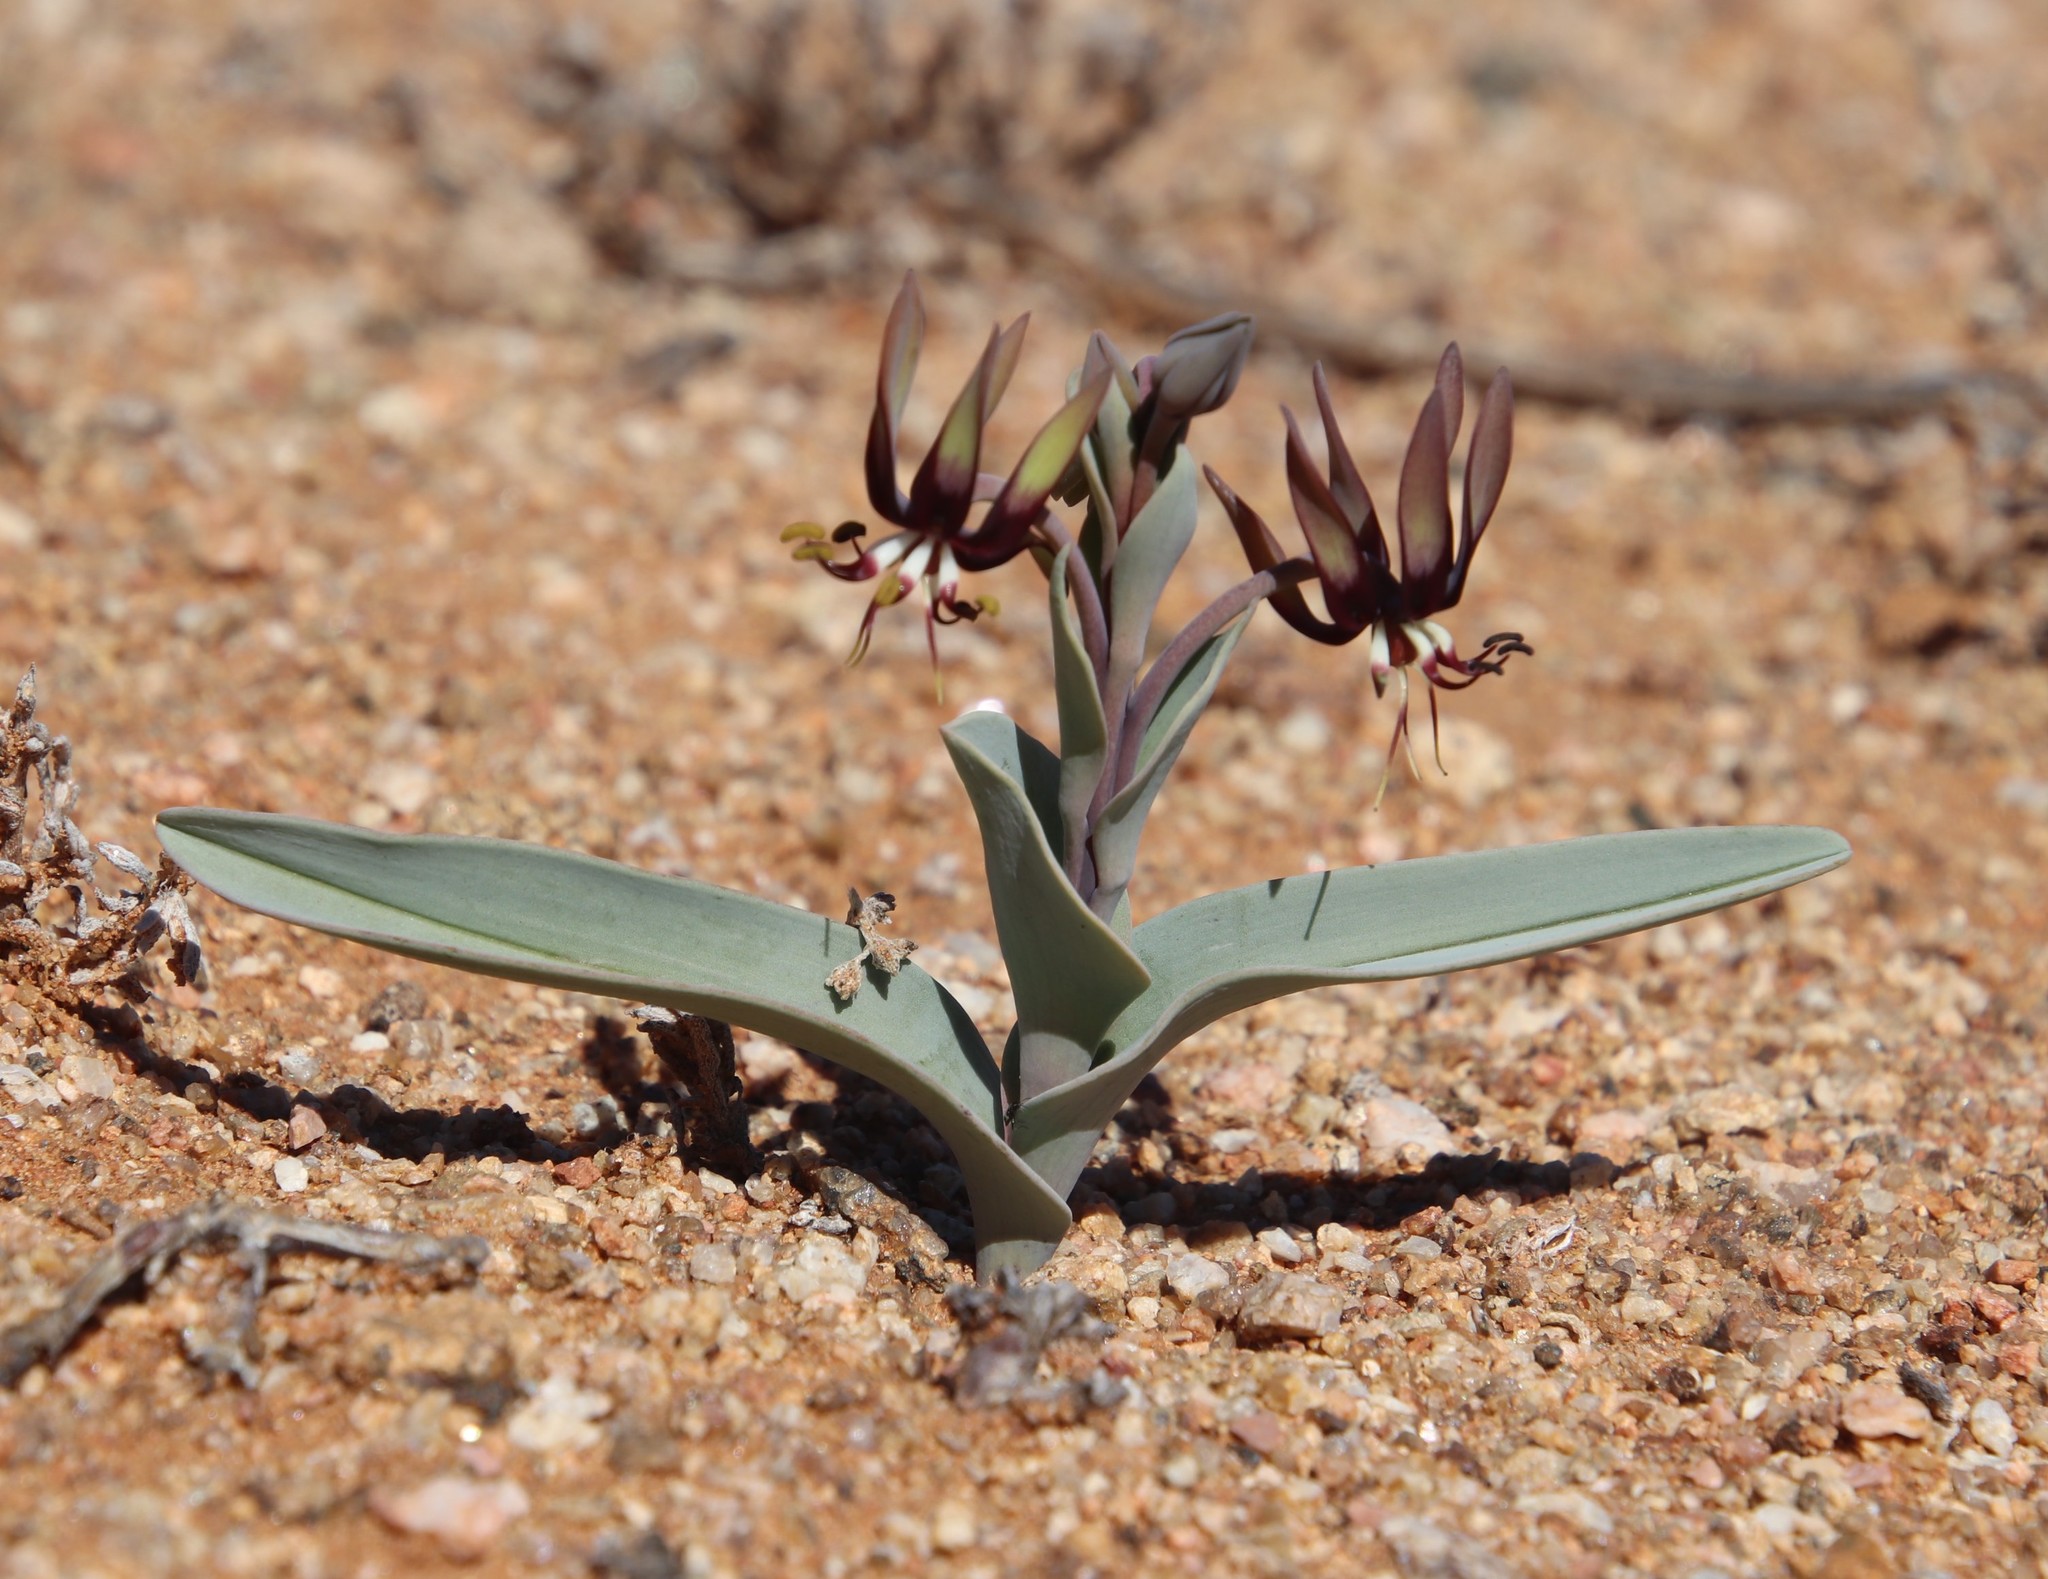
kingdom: Plantae
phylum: Tracheophyta
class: Liliopsida
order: Liliales
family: Colchicaceae
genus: Ornithoglossum
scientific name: Ornithoglossum vulgare
